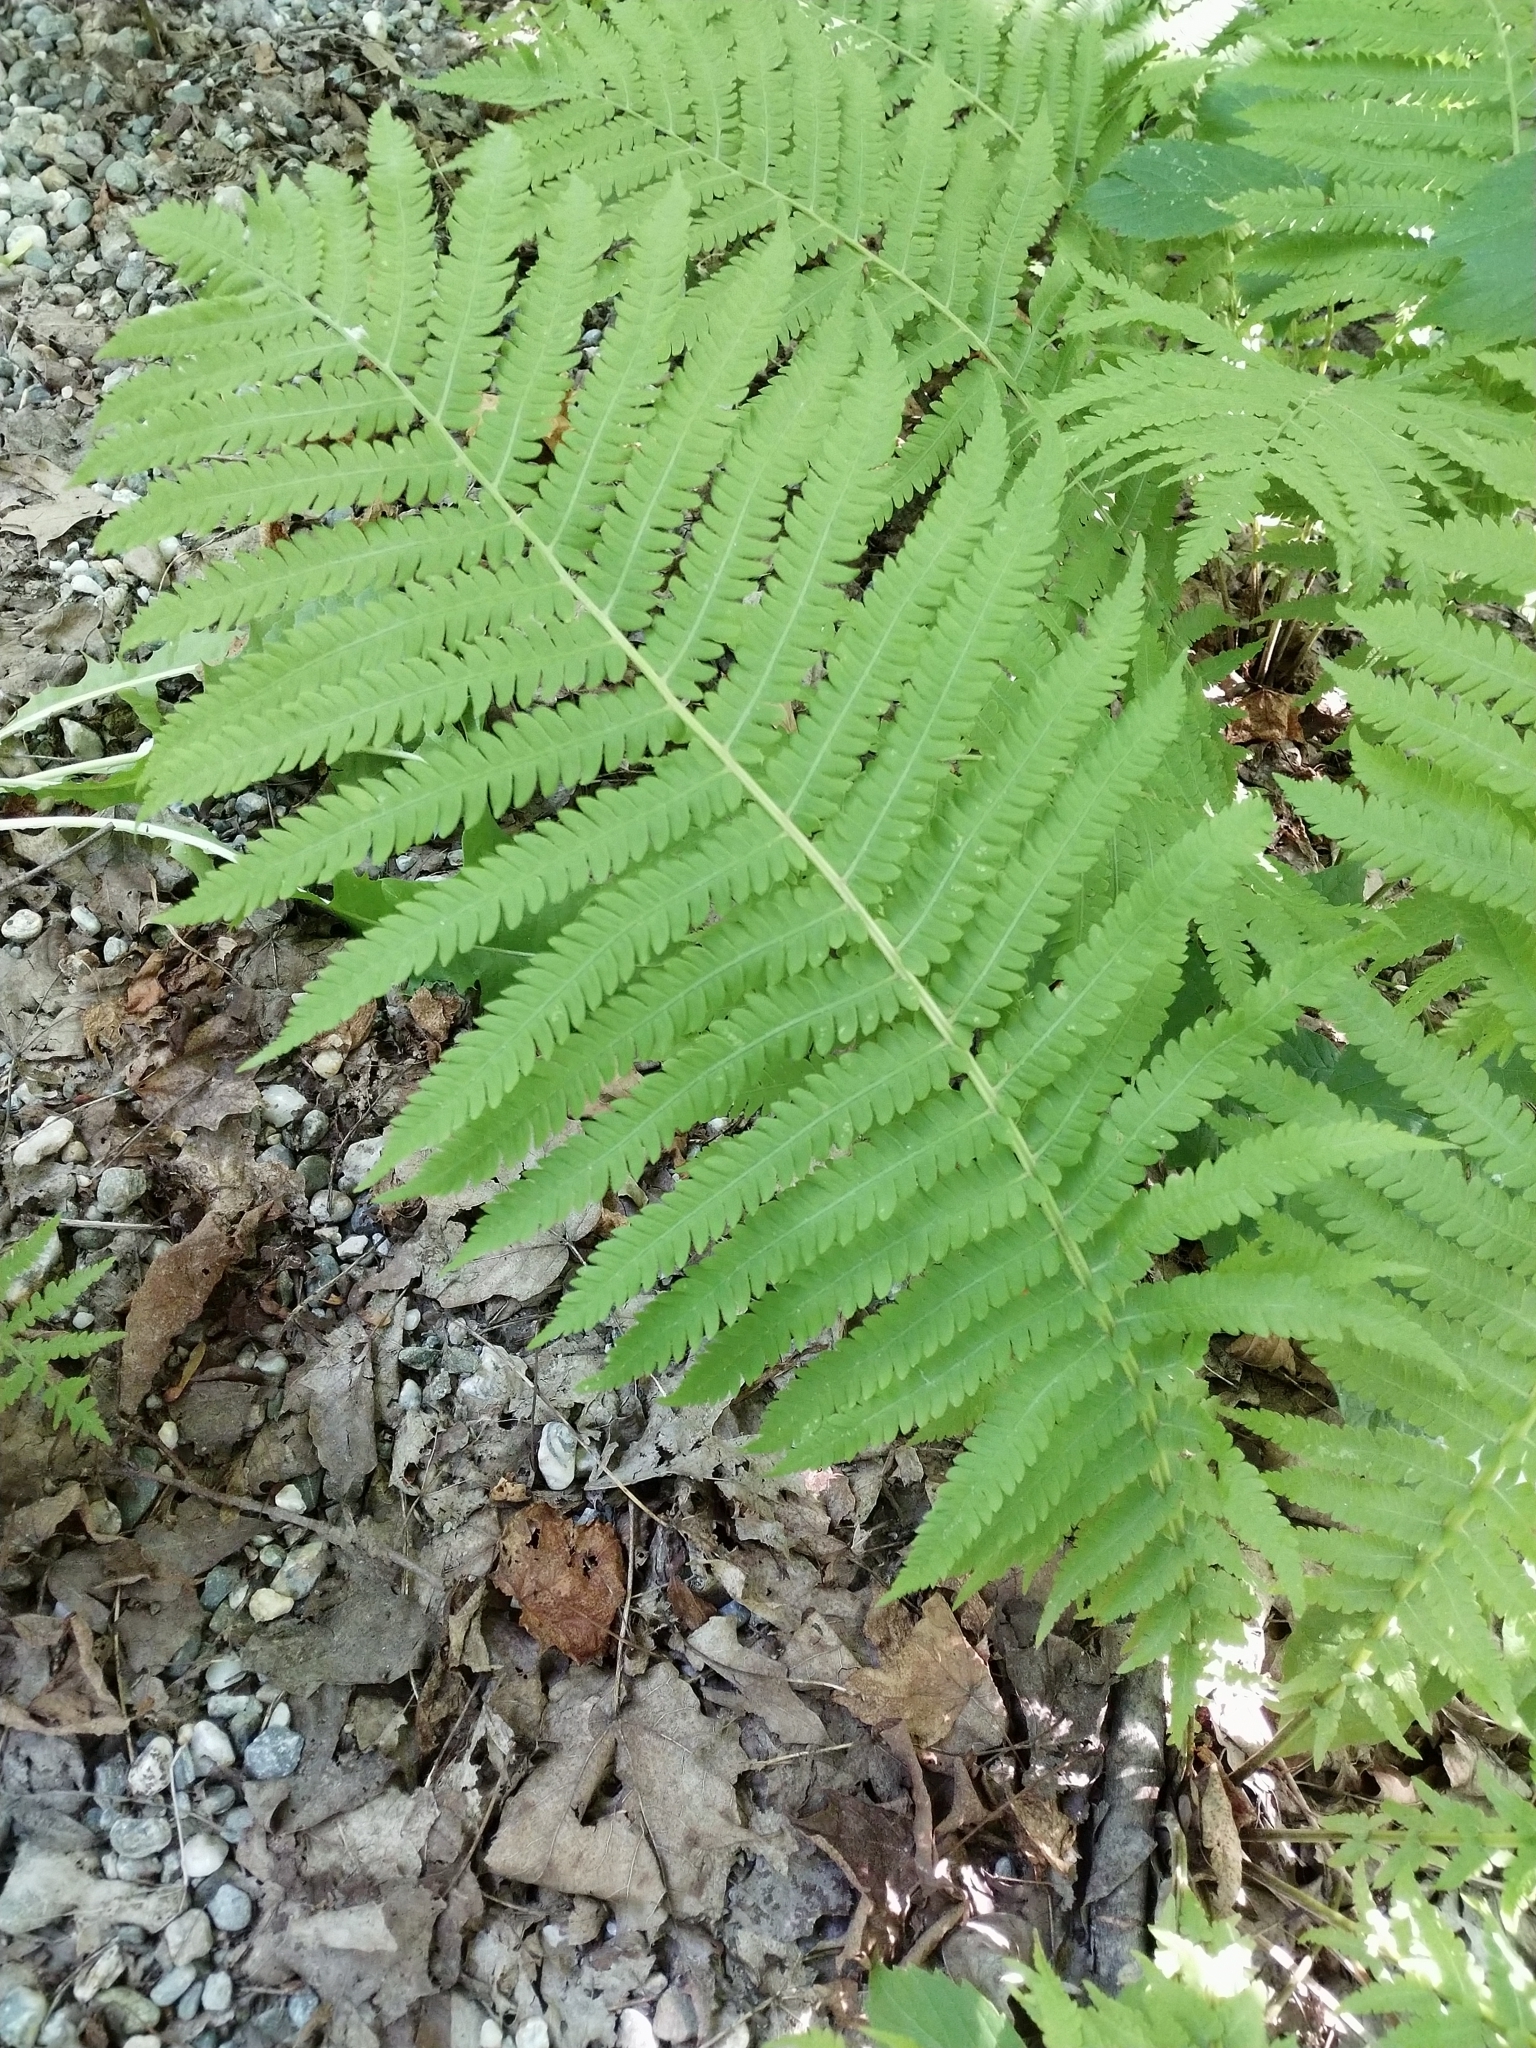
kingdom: Plantae
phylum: Tracheophyta
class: Polypodiopsida
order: Polypodiales
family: Onocleaceae
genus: Matteuccia
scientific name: Matteuccia struthiopteris
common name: Ostrich fern
